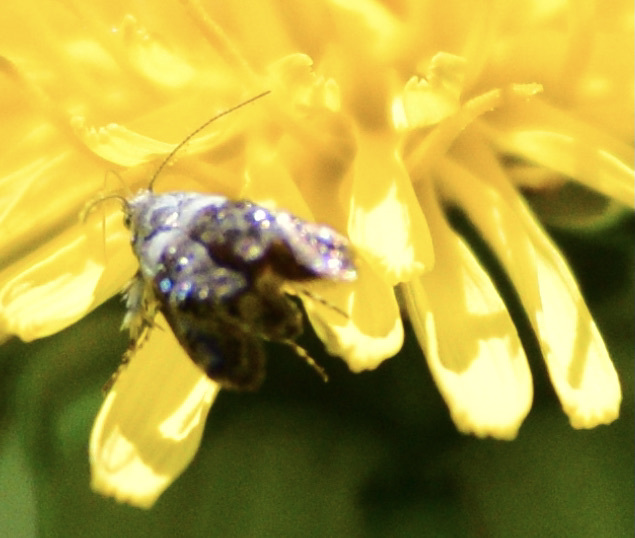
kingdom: Animalia
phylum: Arthropoda
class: Insecta
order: Lepidoptera
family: Choreutidae
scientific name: Choreutidae
